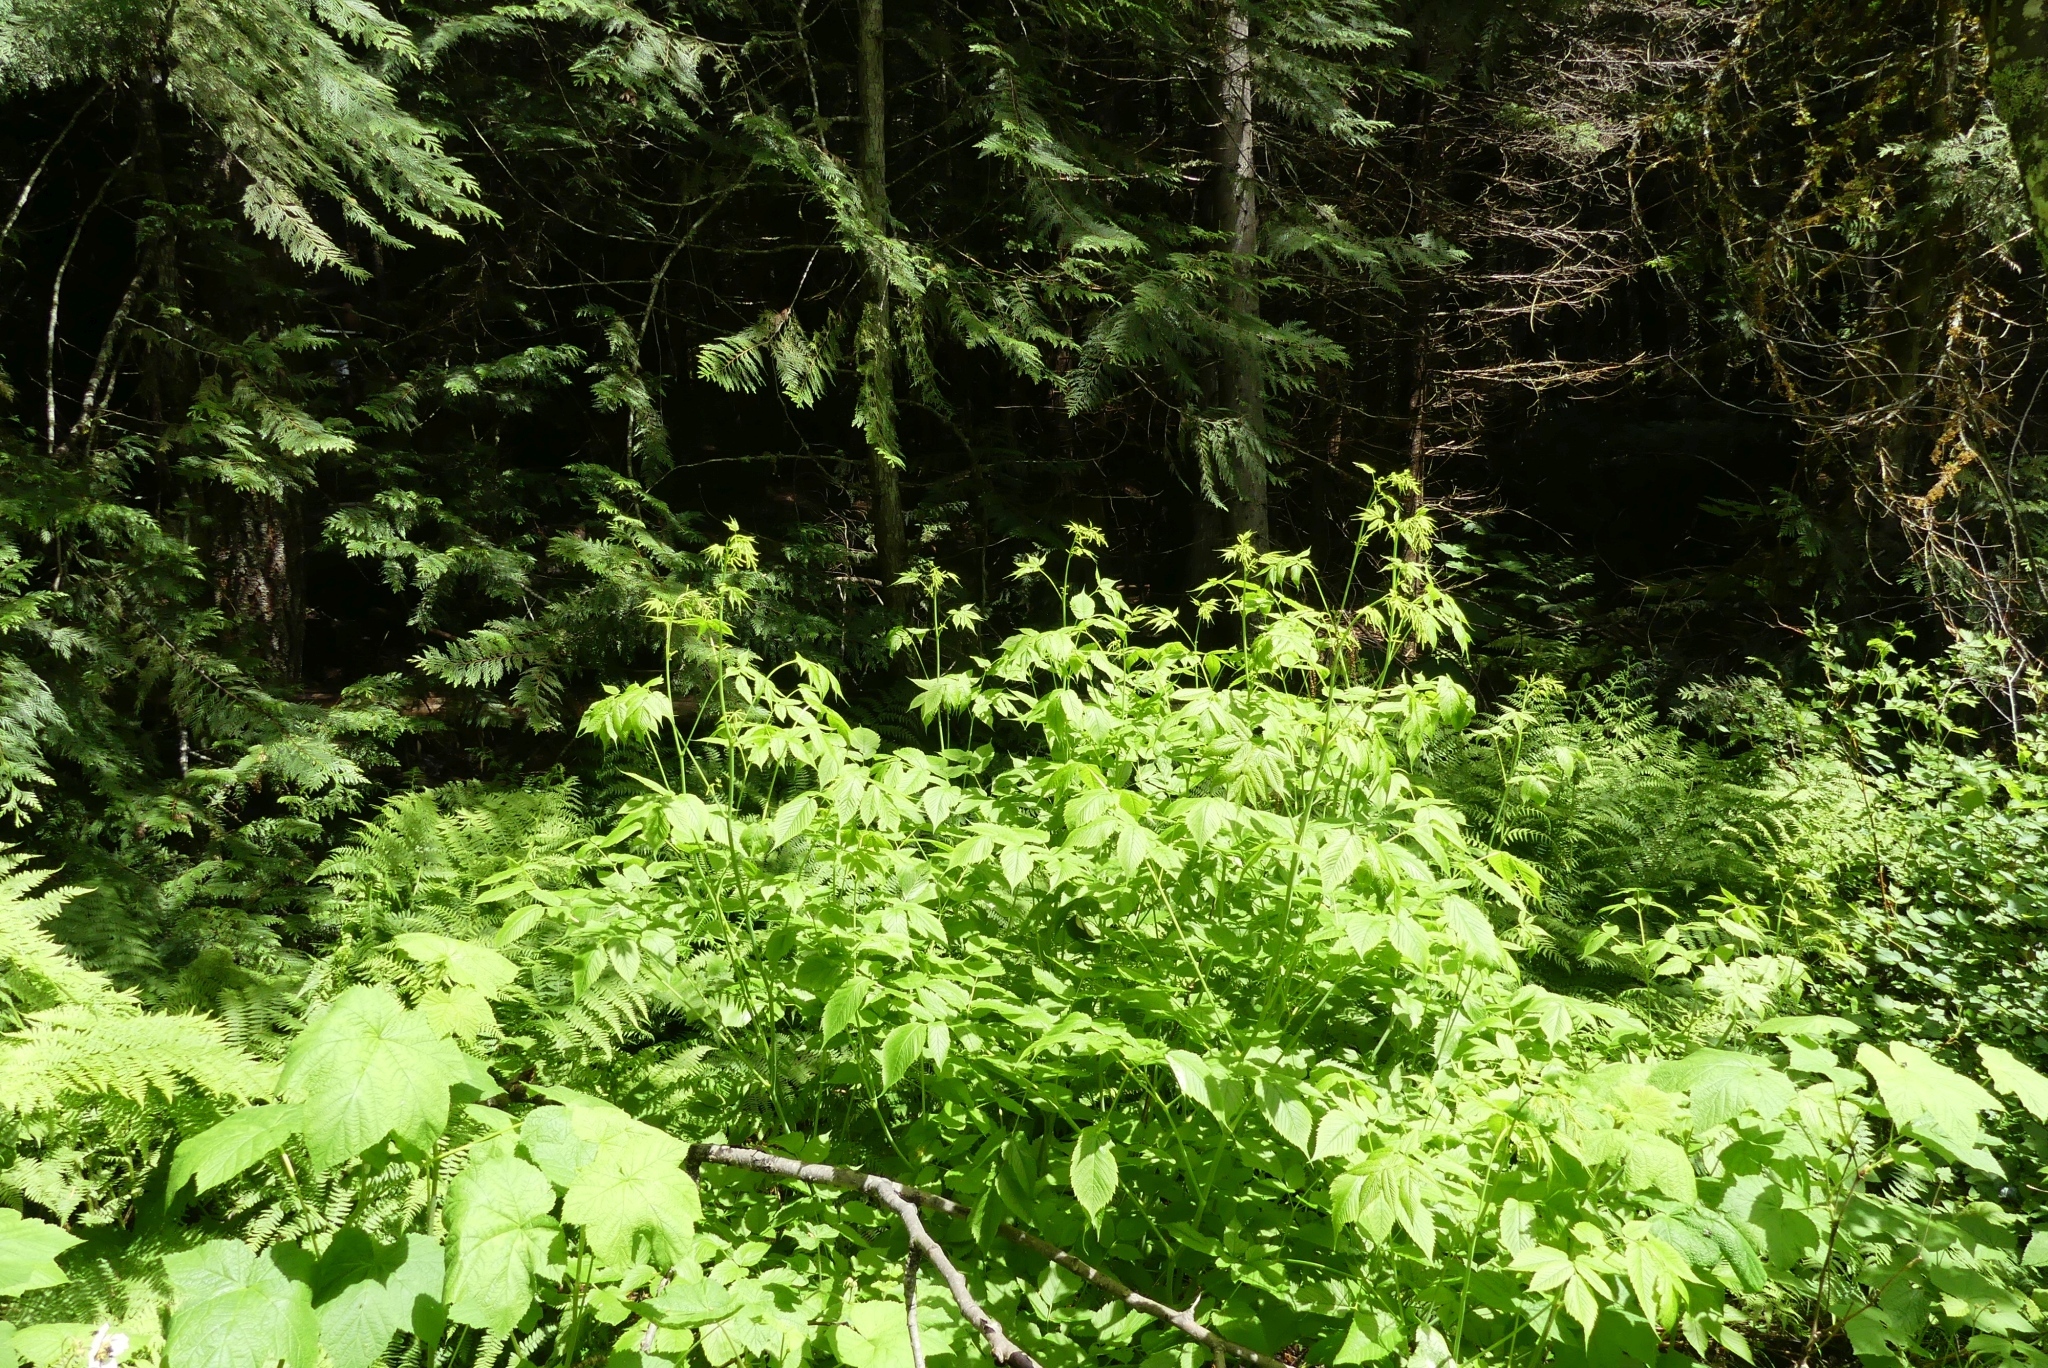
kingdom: Plantae
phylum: Tracheophyta
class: Magnoliopsida
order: Rosales
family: Rosaceae
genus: Aruncus
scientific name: Aruncus dioicus
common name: Buck's-beard
